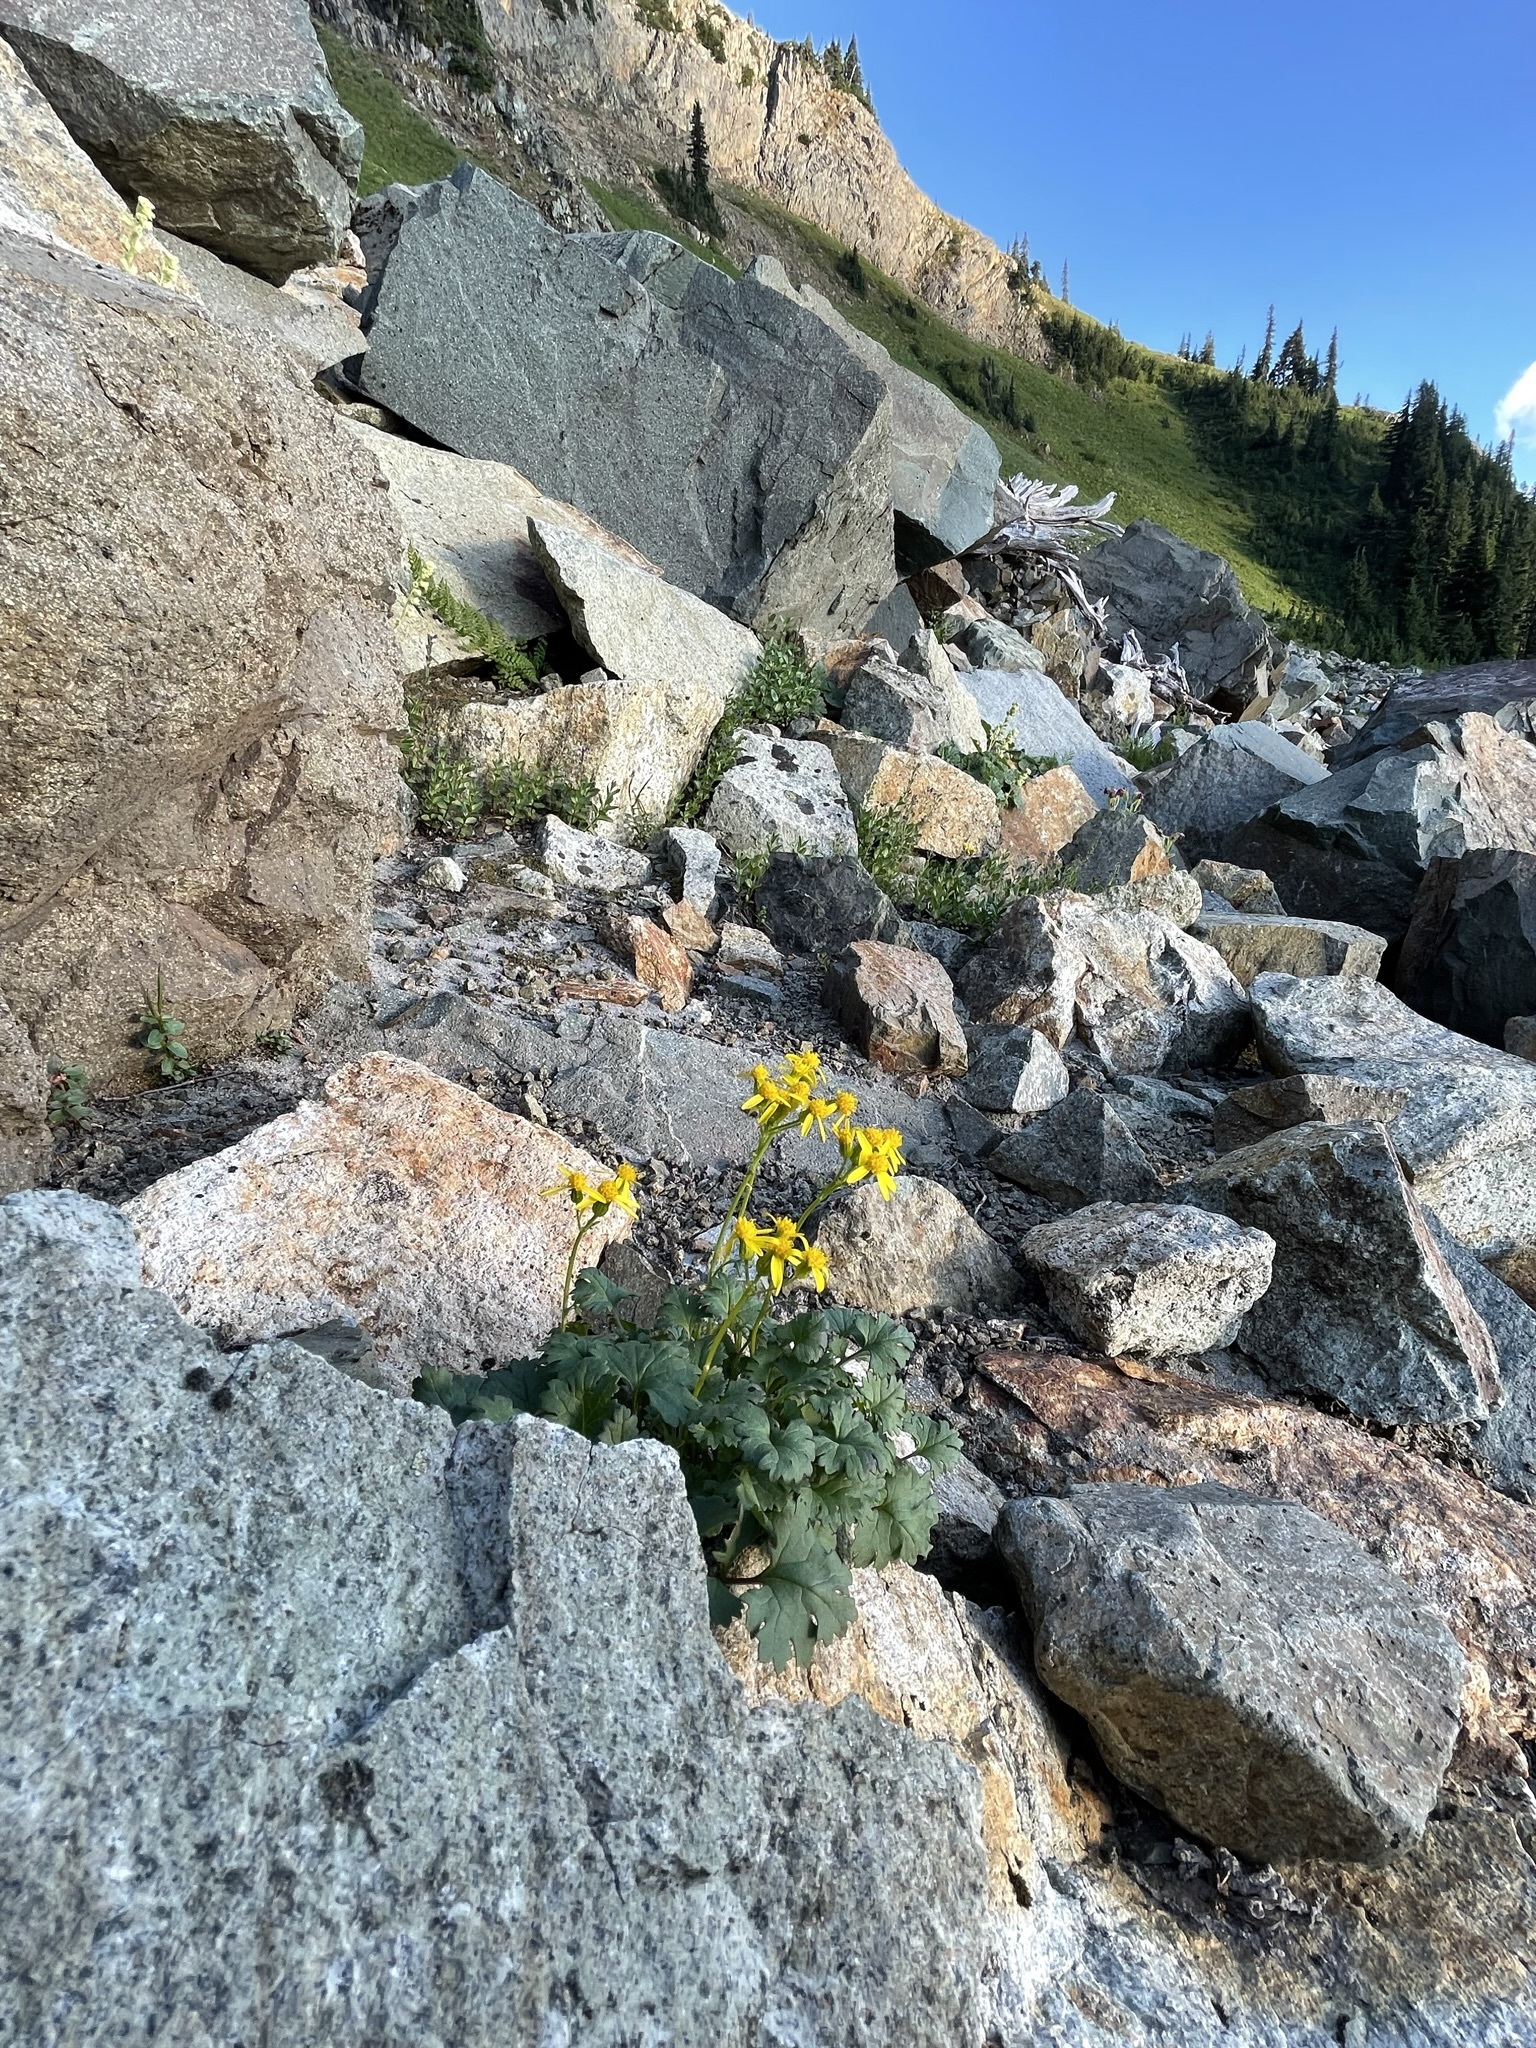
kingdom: Plantae
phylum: Tracheophyta
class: Magnoliopsida
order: Asterales
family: Asteraceae
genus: Packera
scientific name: Packera flettii
